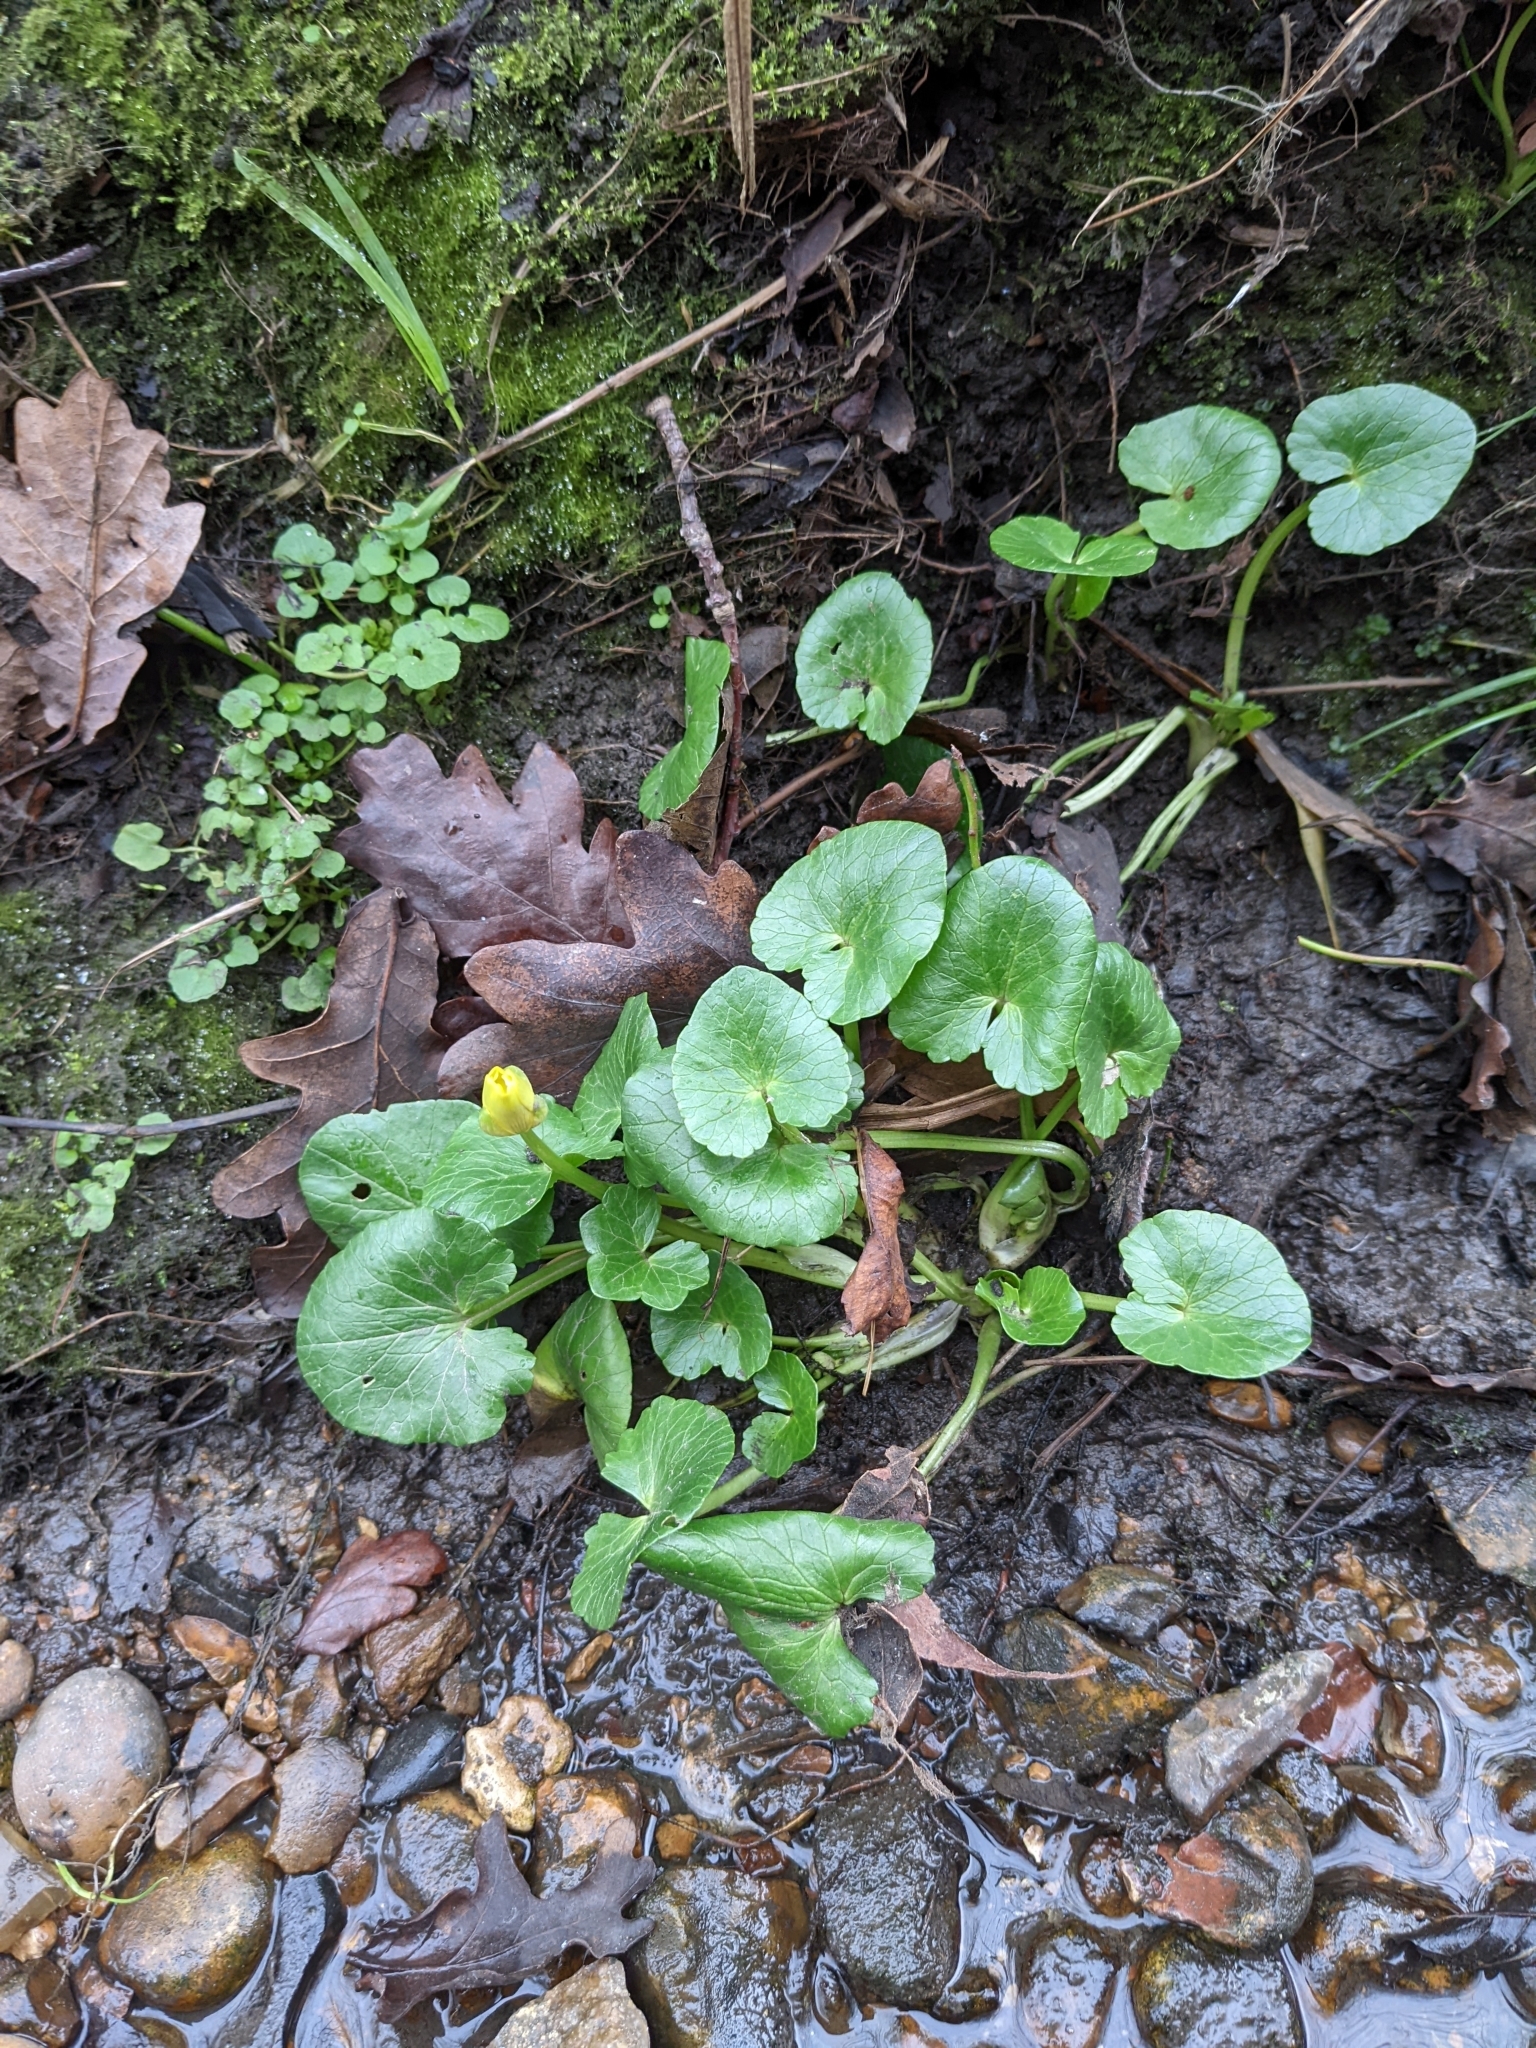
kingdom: Plantae
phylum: Tracheophyta
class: Magnoliopsida
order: Ranunculales
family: Ranunculaceae
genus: Ficaria
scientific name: Ficaria verna
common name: Lesser celandine
